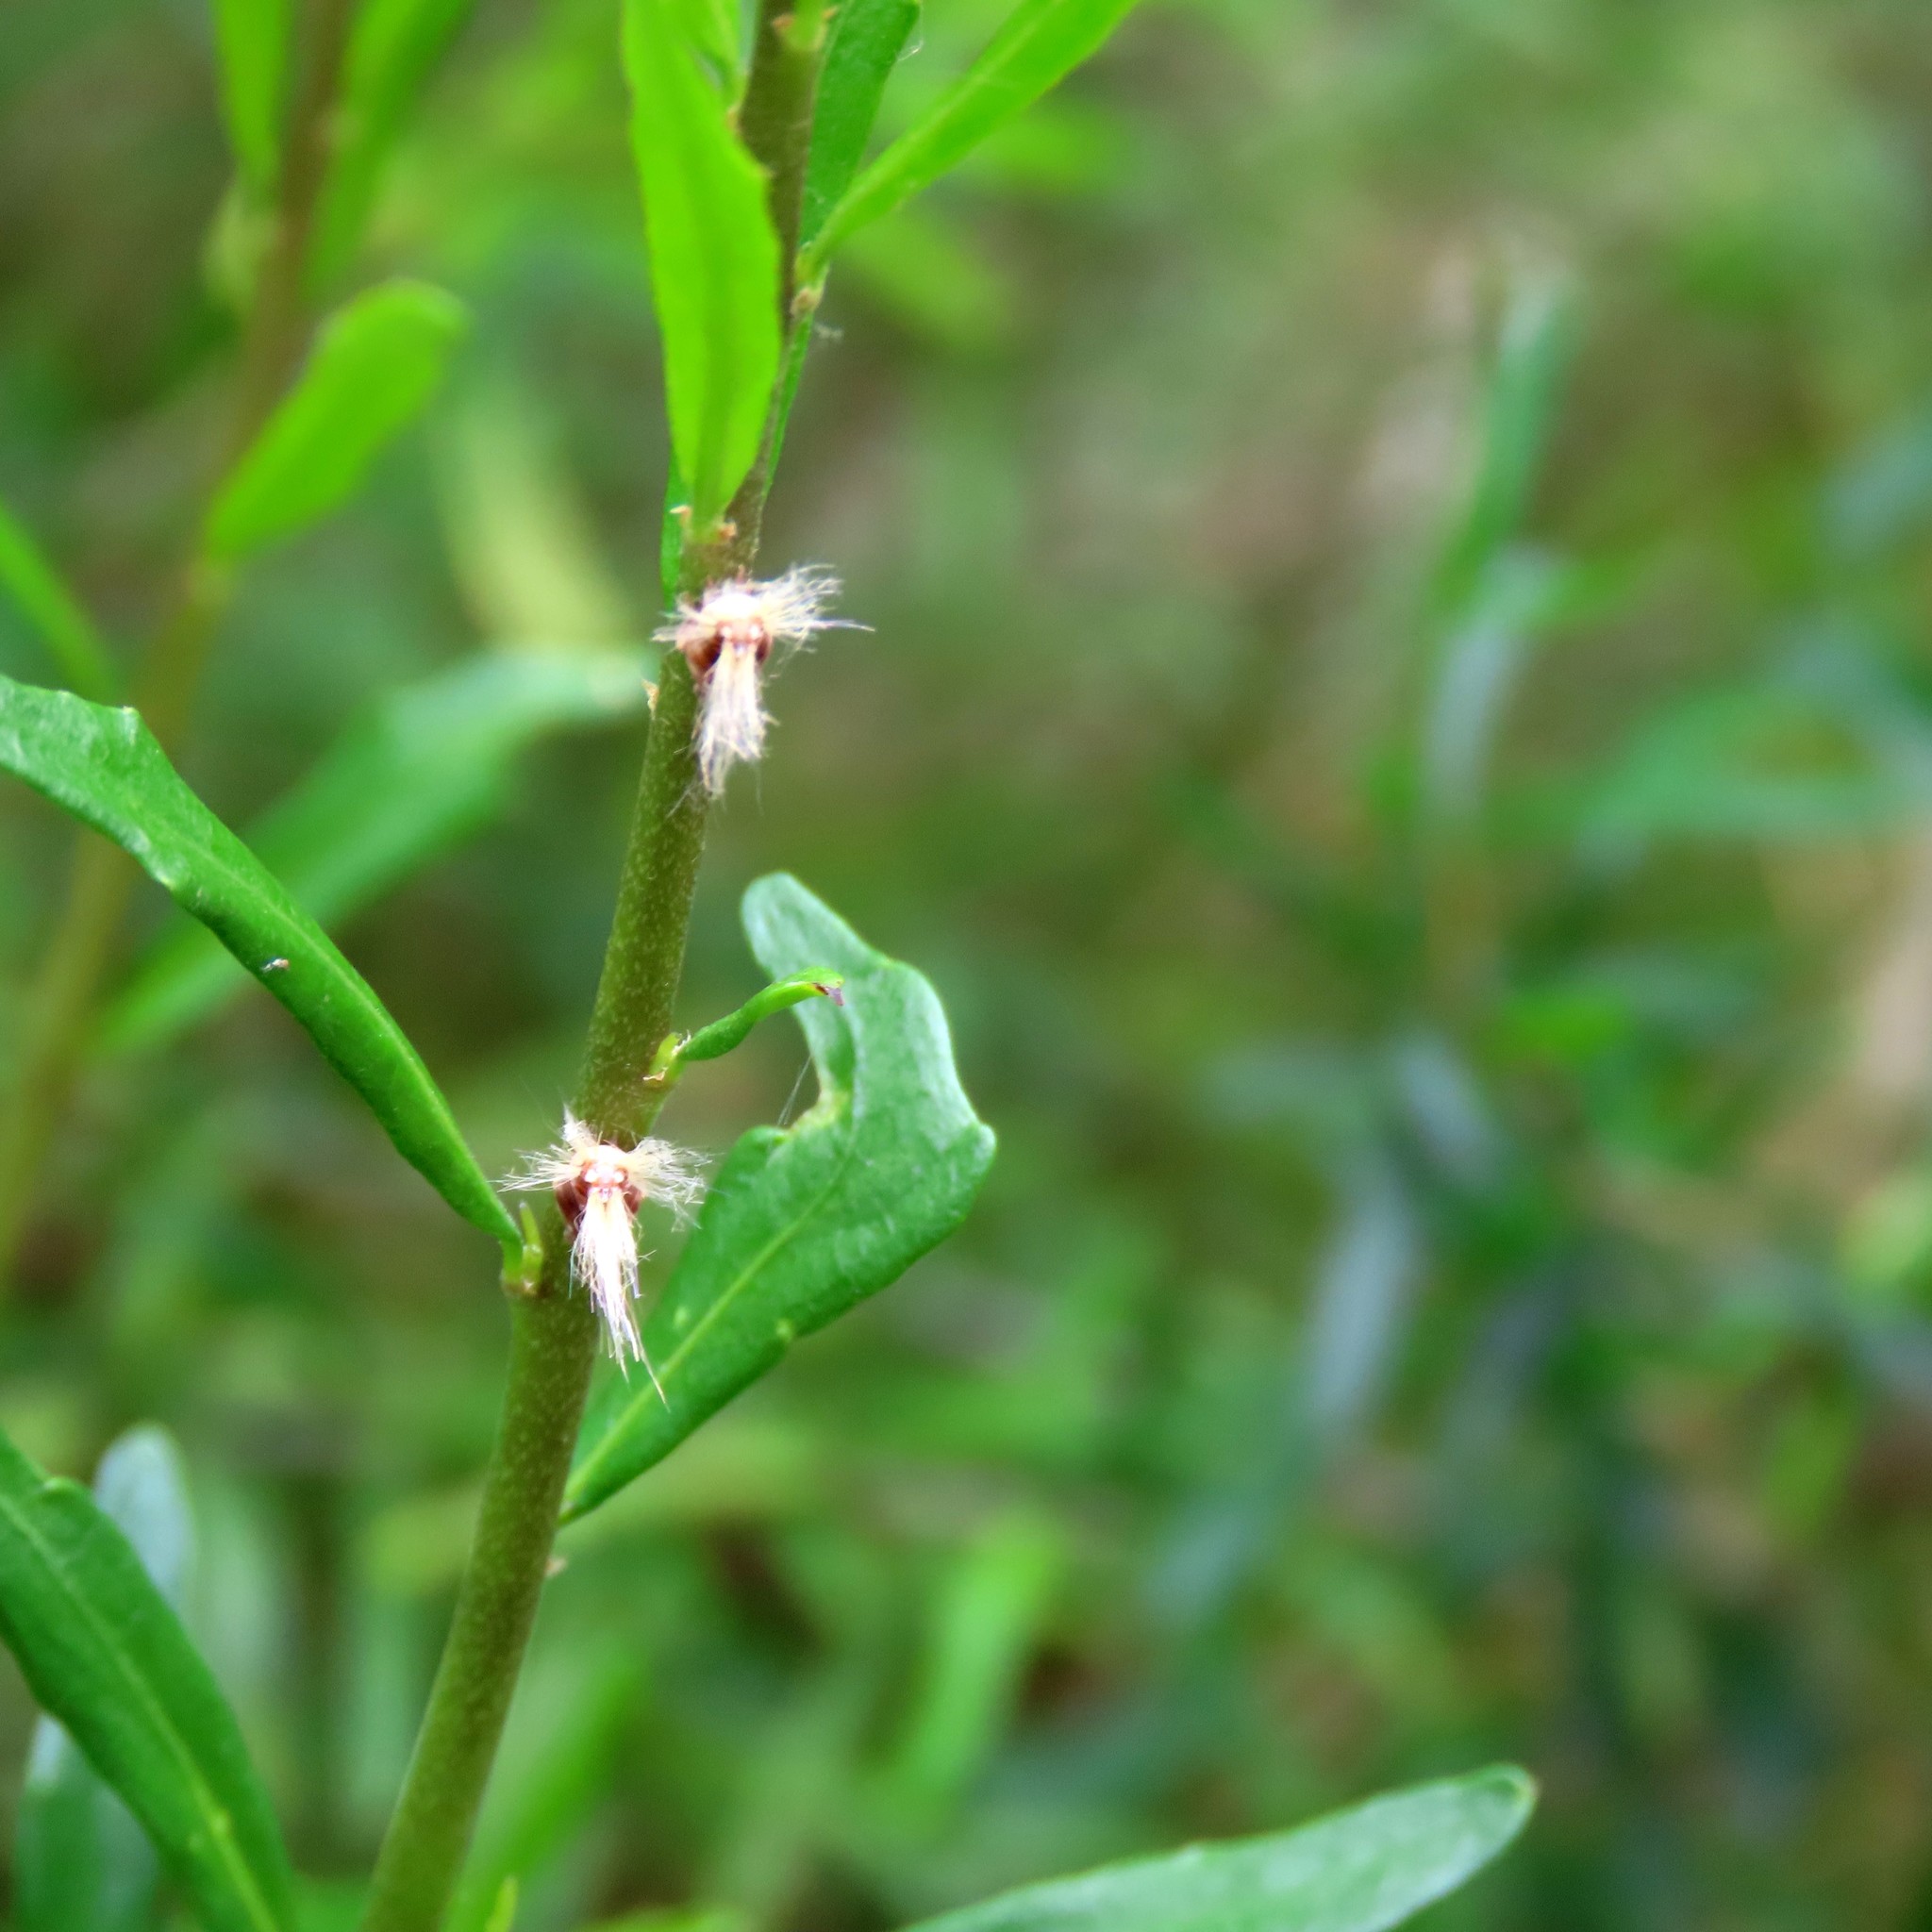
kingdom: Animalia
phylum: Arthropoda
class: Insecta
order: Hemiptera
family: Ricaniidae
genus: Scolypopa
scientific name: Scolypopa australis
